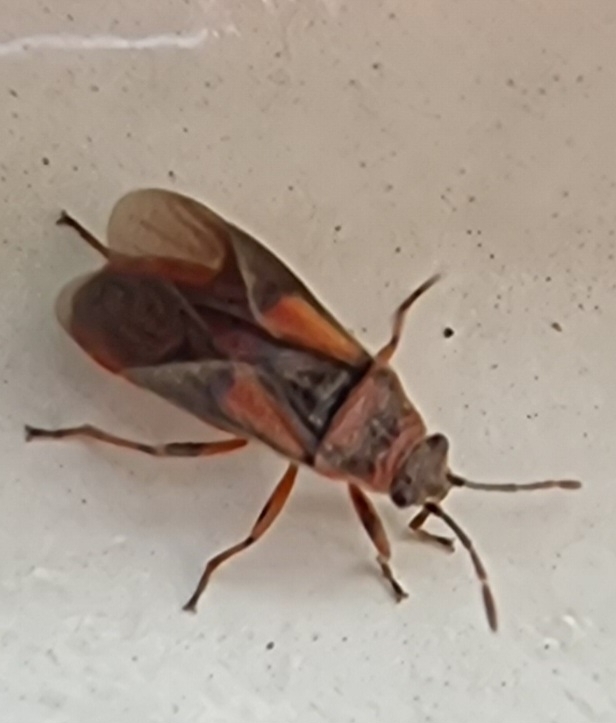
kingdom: Animalia
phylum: Arthropoda
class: Insecta
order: Hemiptera
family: Lygaeidae
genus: Arocatus
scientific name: Arocatus melanocephalus
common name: Lygaeid bug
